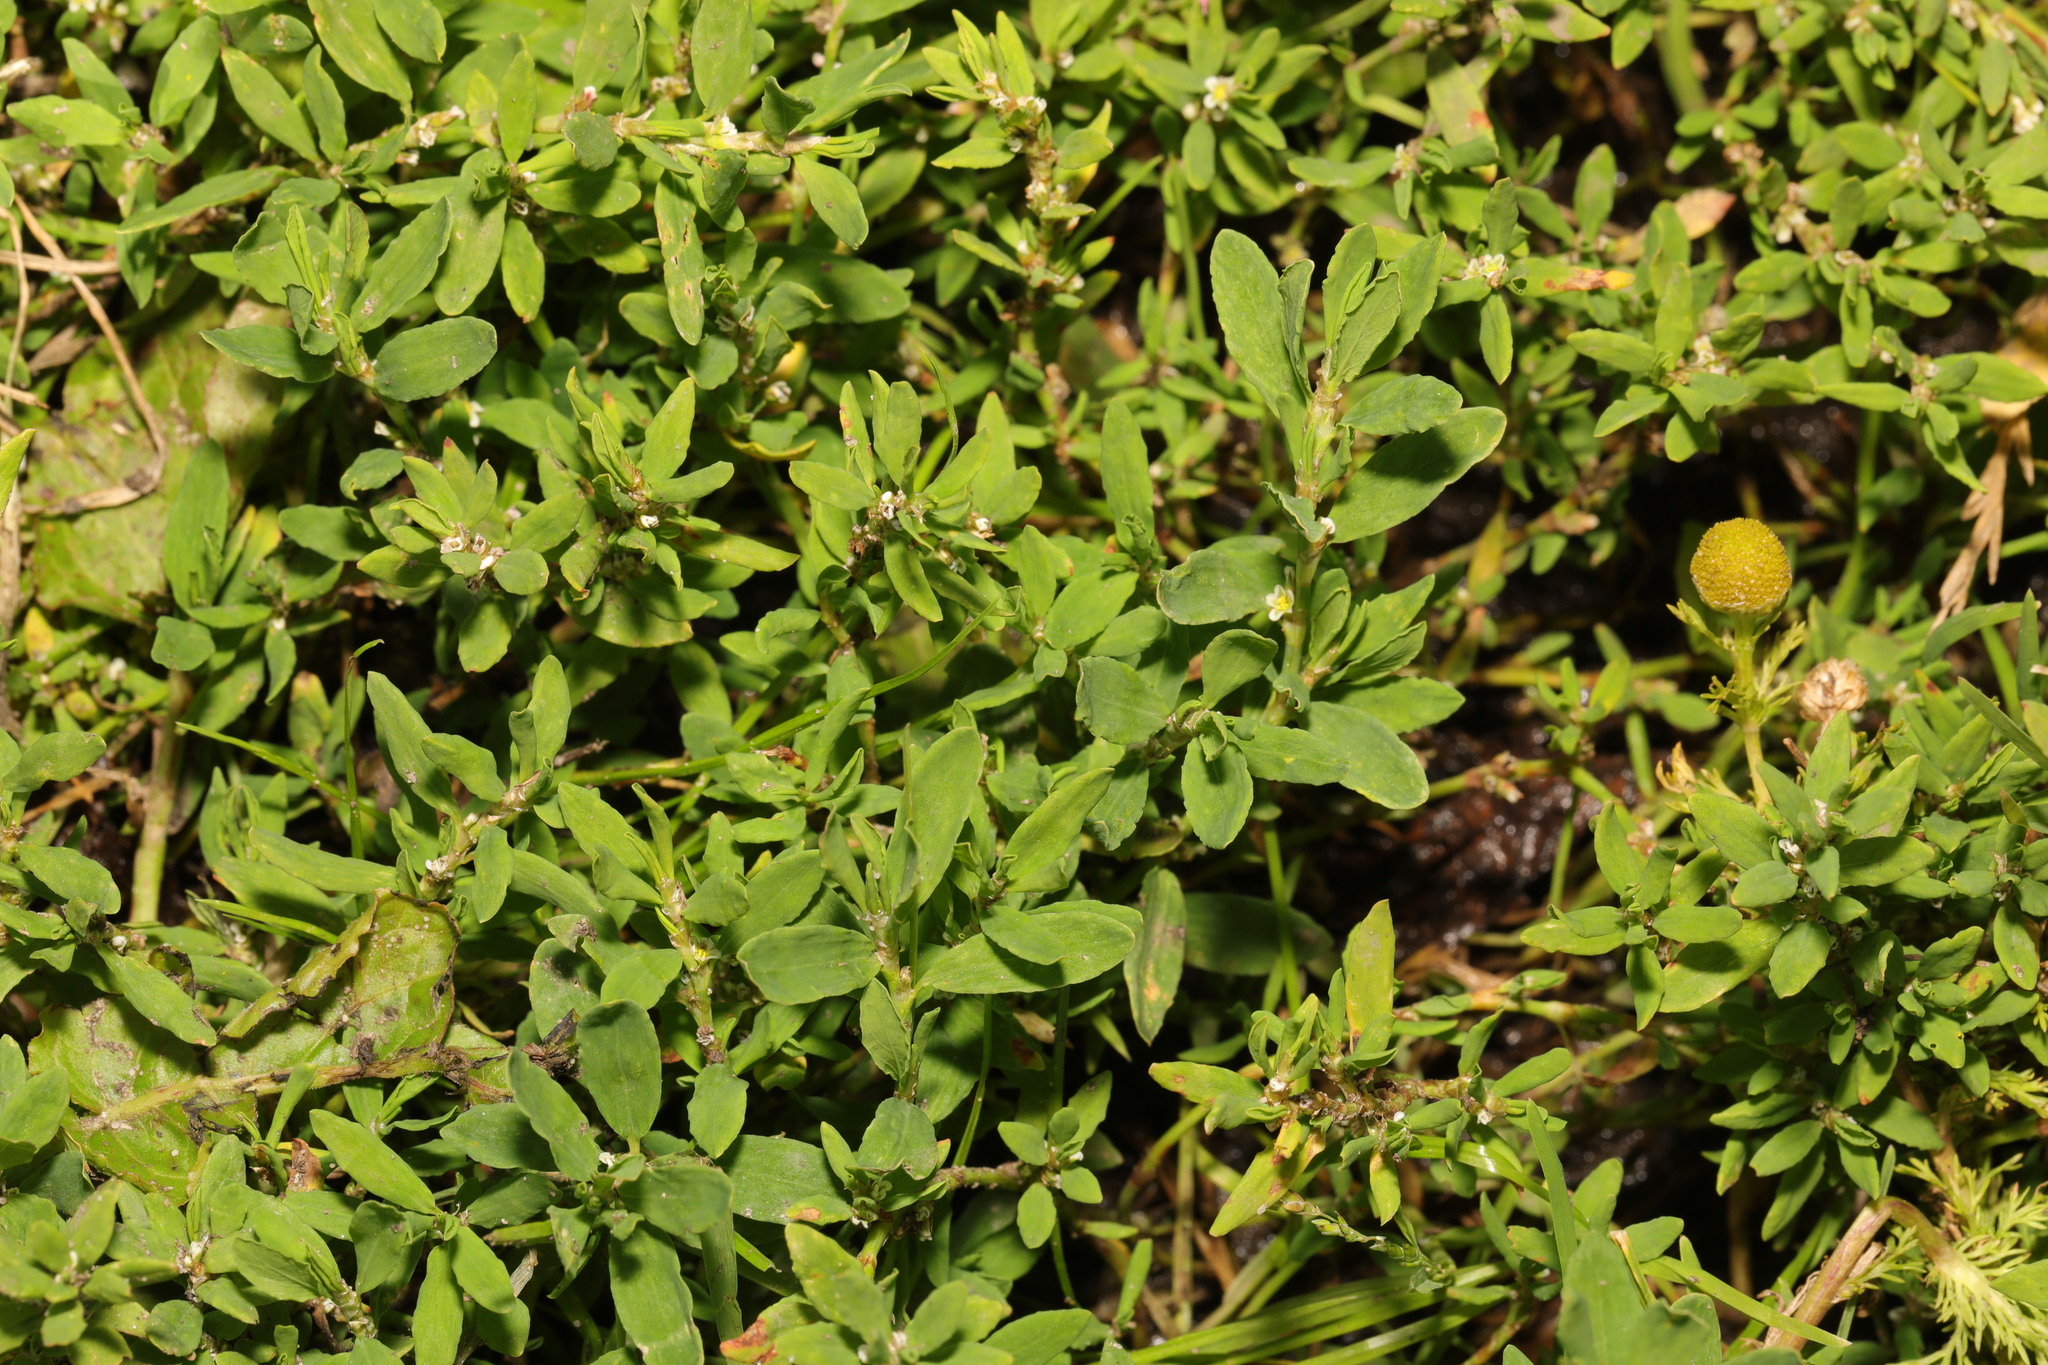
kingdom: Plantae
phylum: Tracheophyta
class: Magnoliopsida
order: Caryophyllales
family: Polygonaceae
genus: Polygonum
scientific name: Polygonum aviculare
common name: Prostrate knotweed
